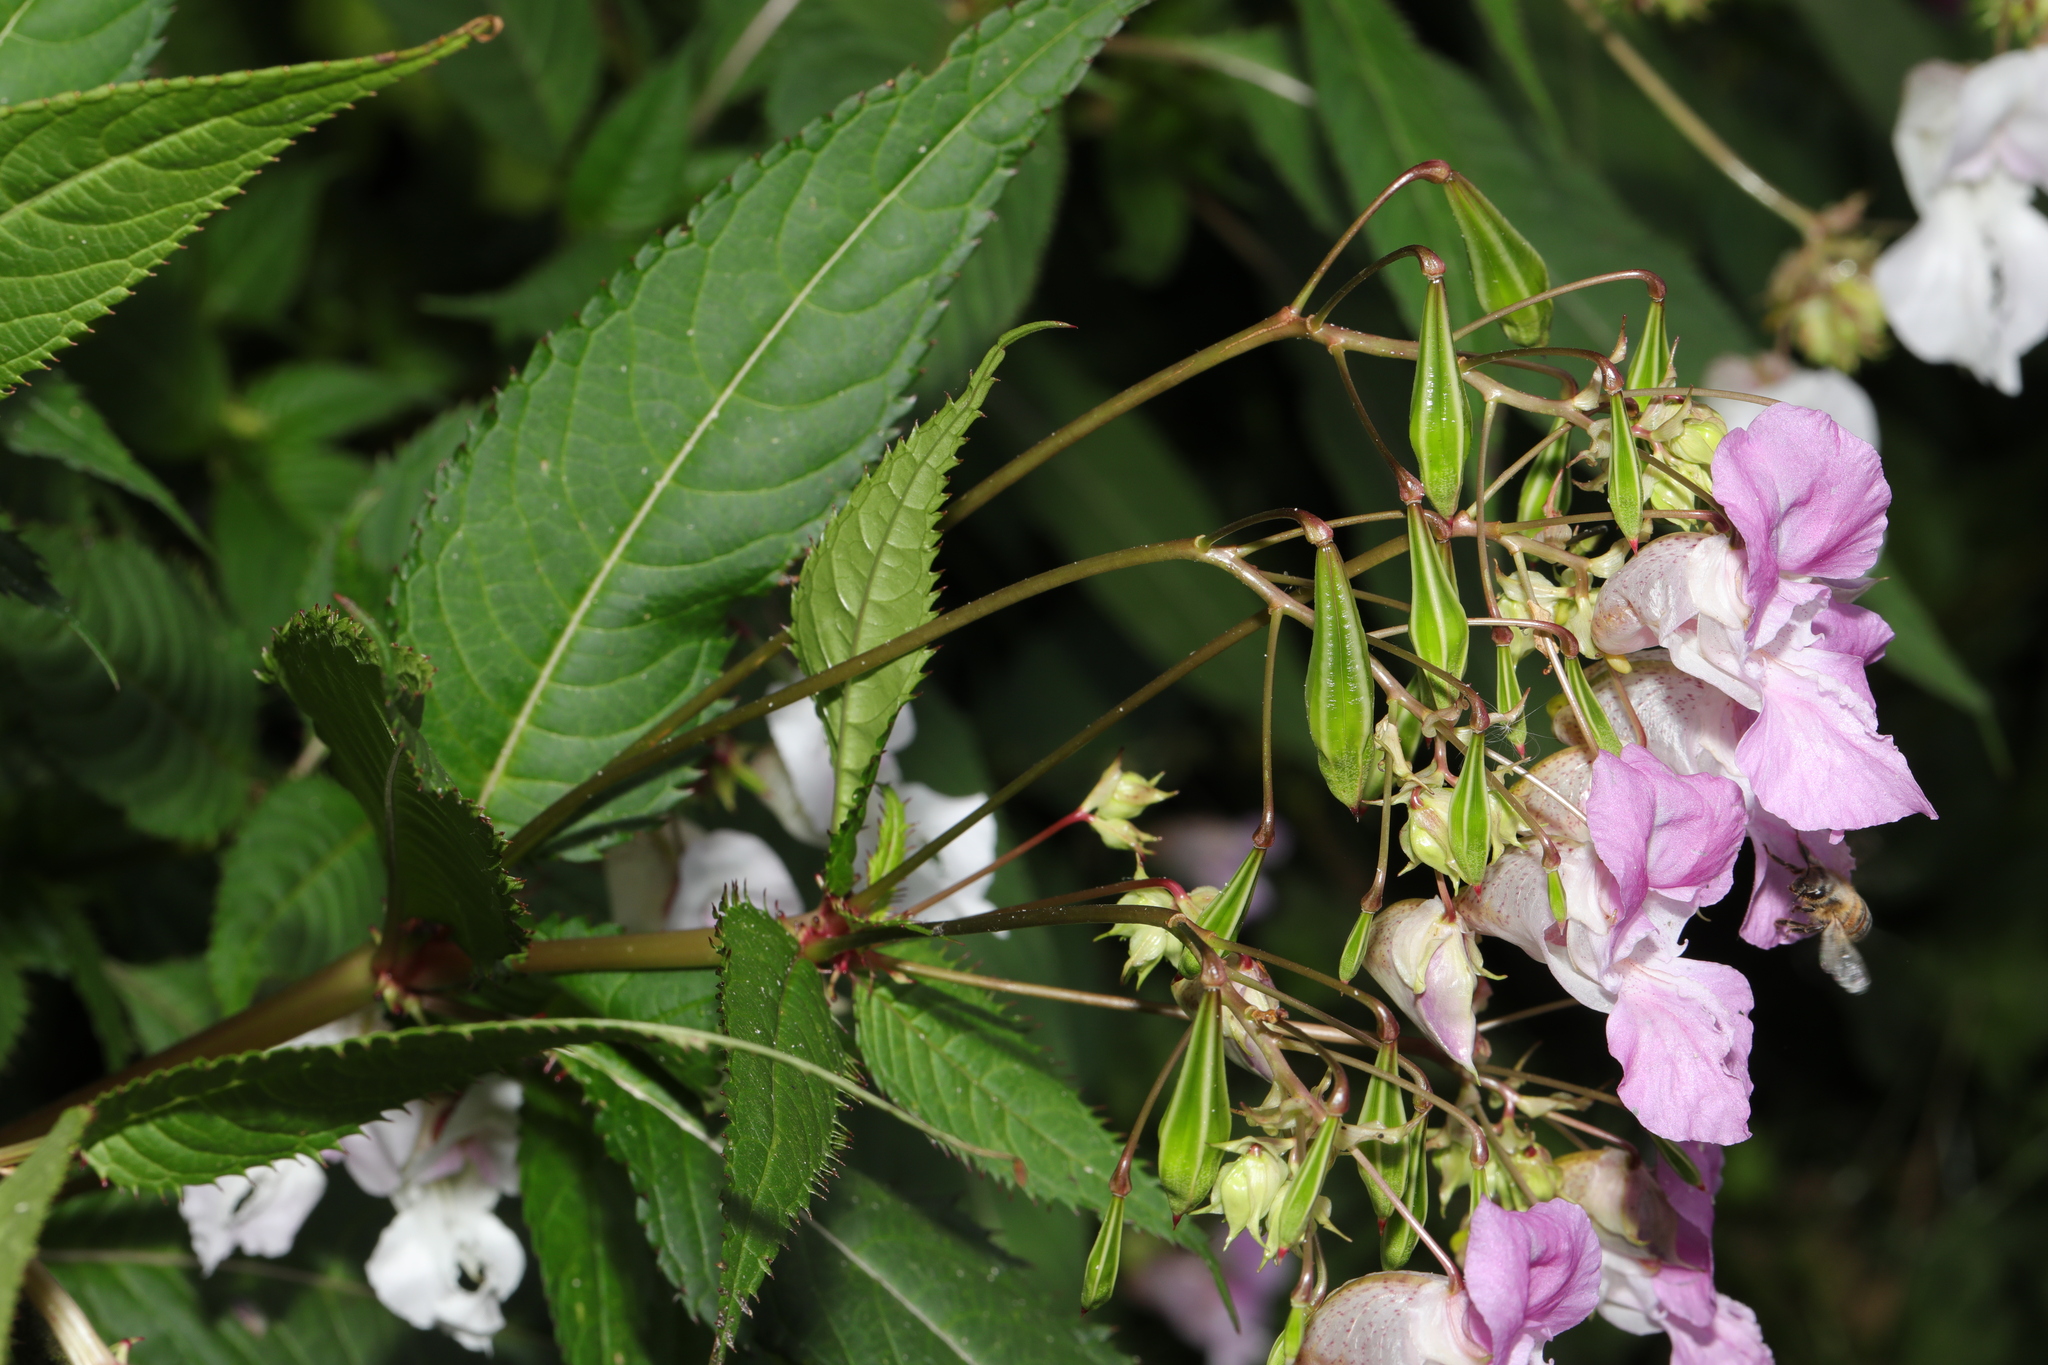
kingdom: Plantae
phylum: Tracheophyta
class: Magnoliopsida
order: Ericales
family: Balsaminaceae
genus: Impatiens
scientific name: Impatiens glandulifera
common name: Himalayan balsam
